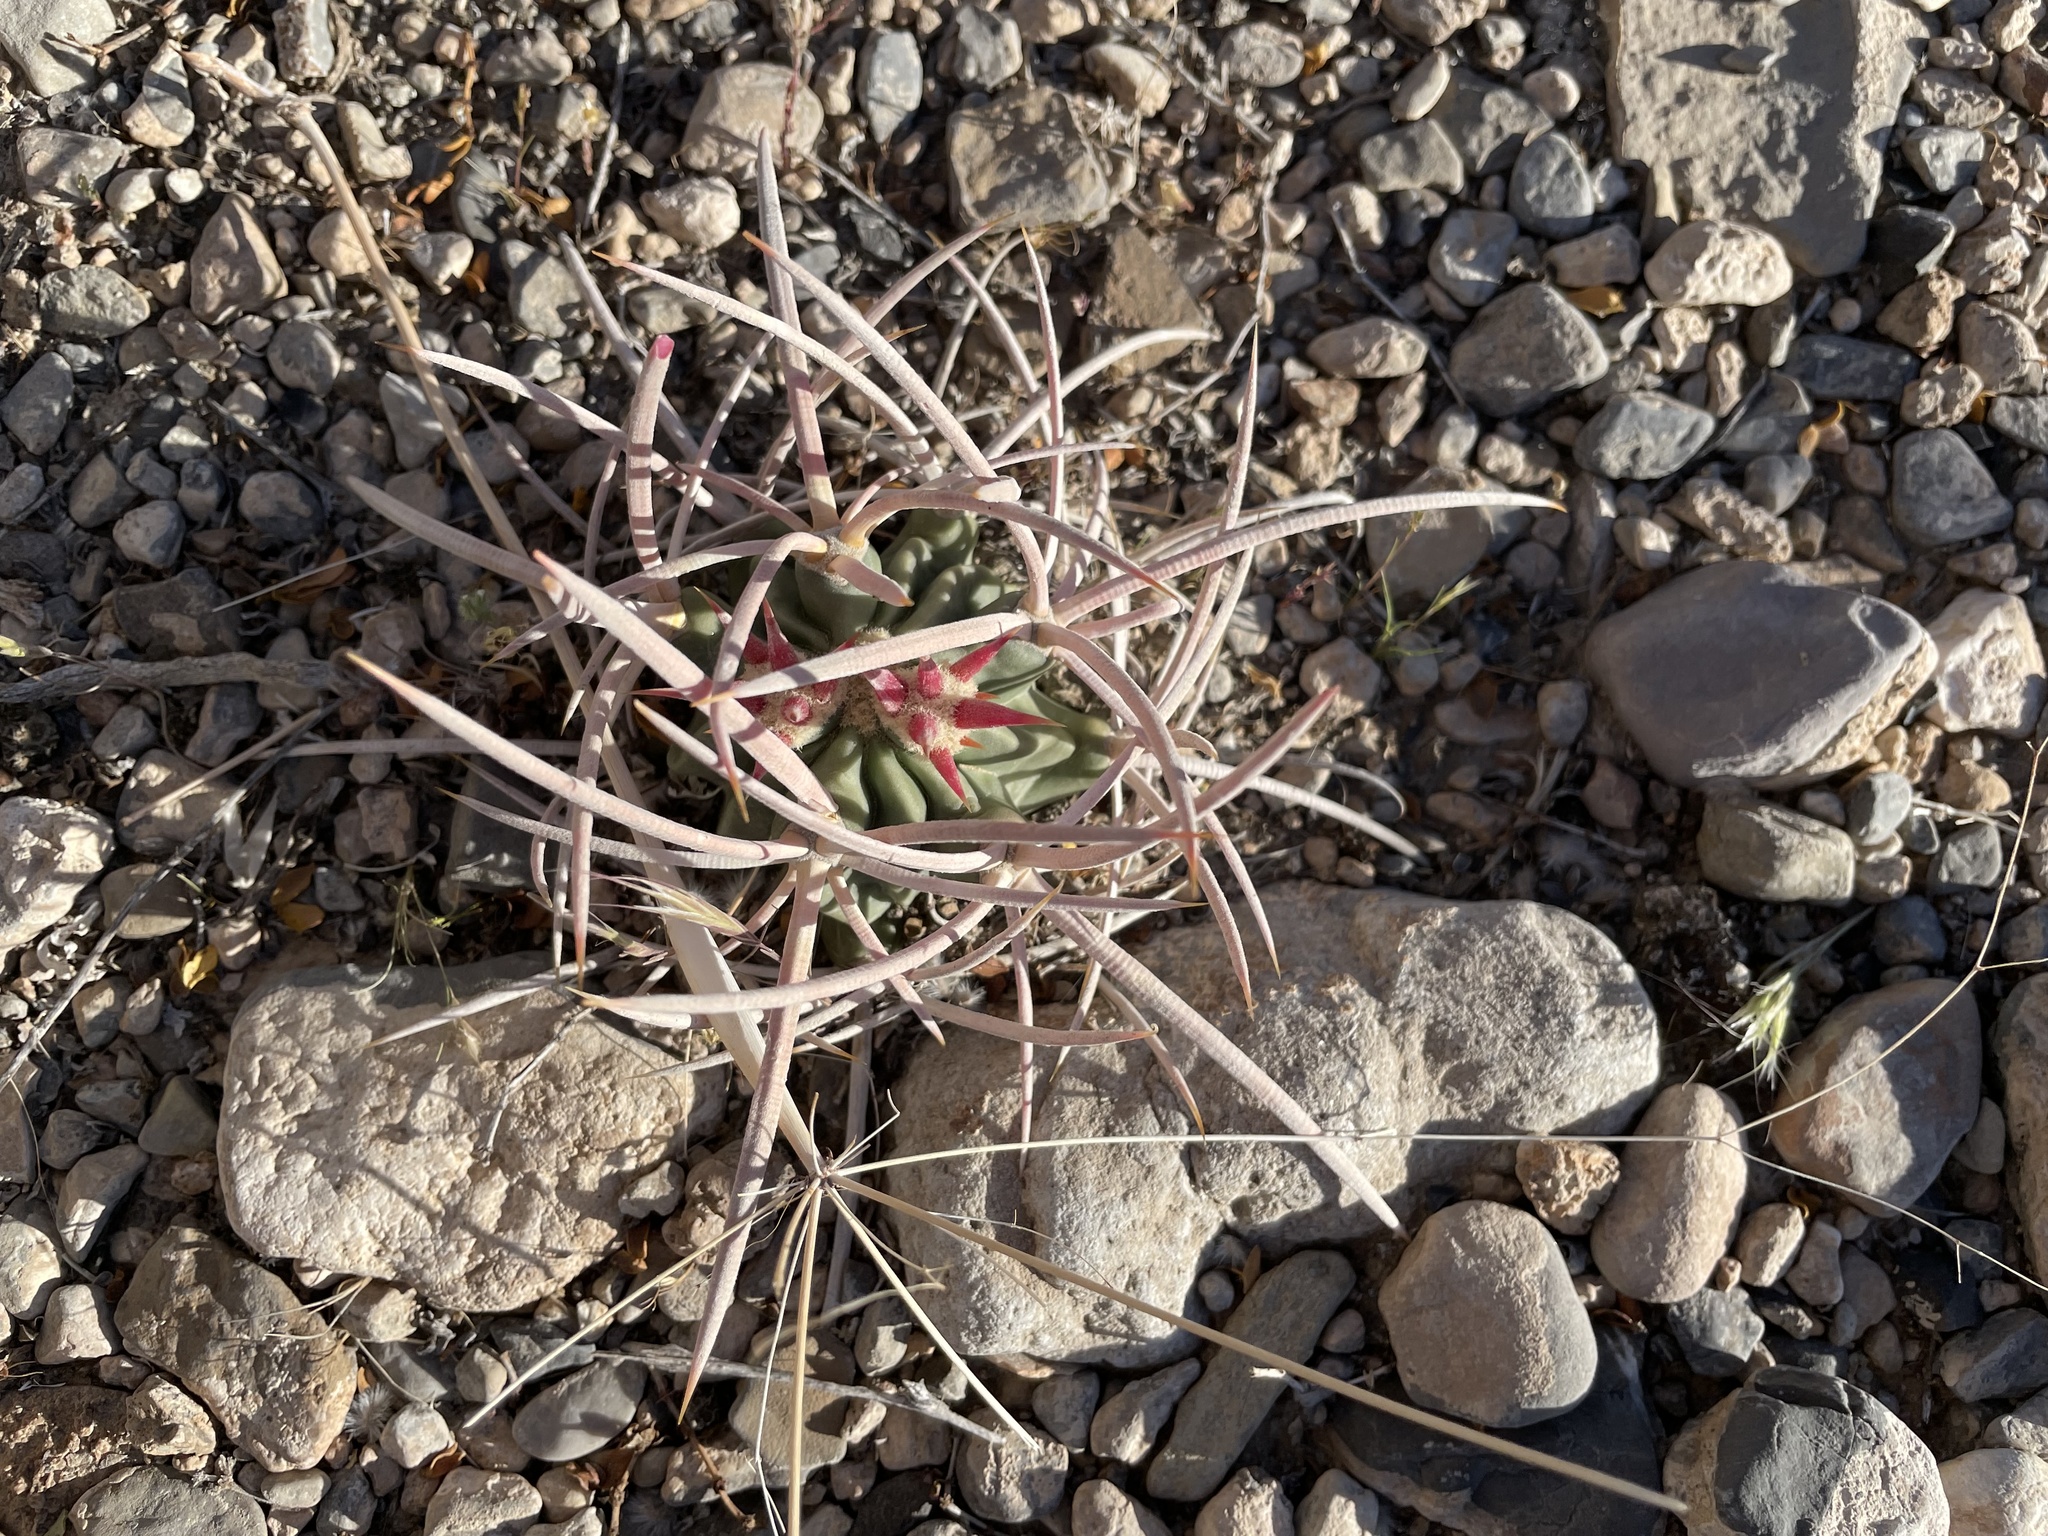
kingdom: Plantae
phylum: Tracheophyta
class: Magnoliopsida
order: Caryophyllales
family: Cactaceae
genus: Echinocactus
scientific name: Echinocactus polycephalus
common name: Cottontop cactus
